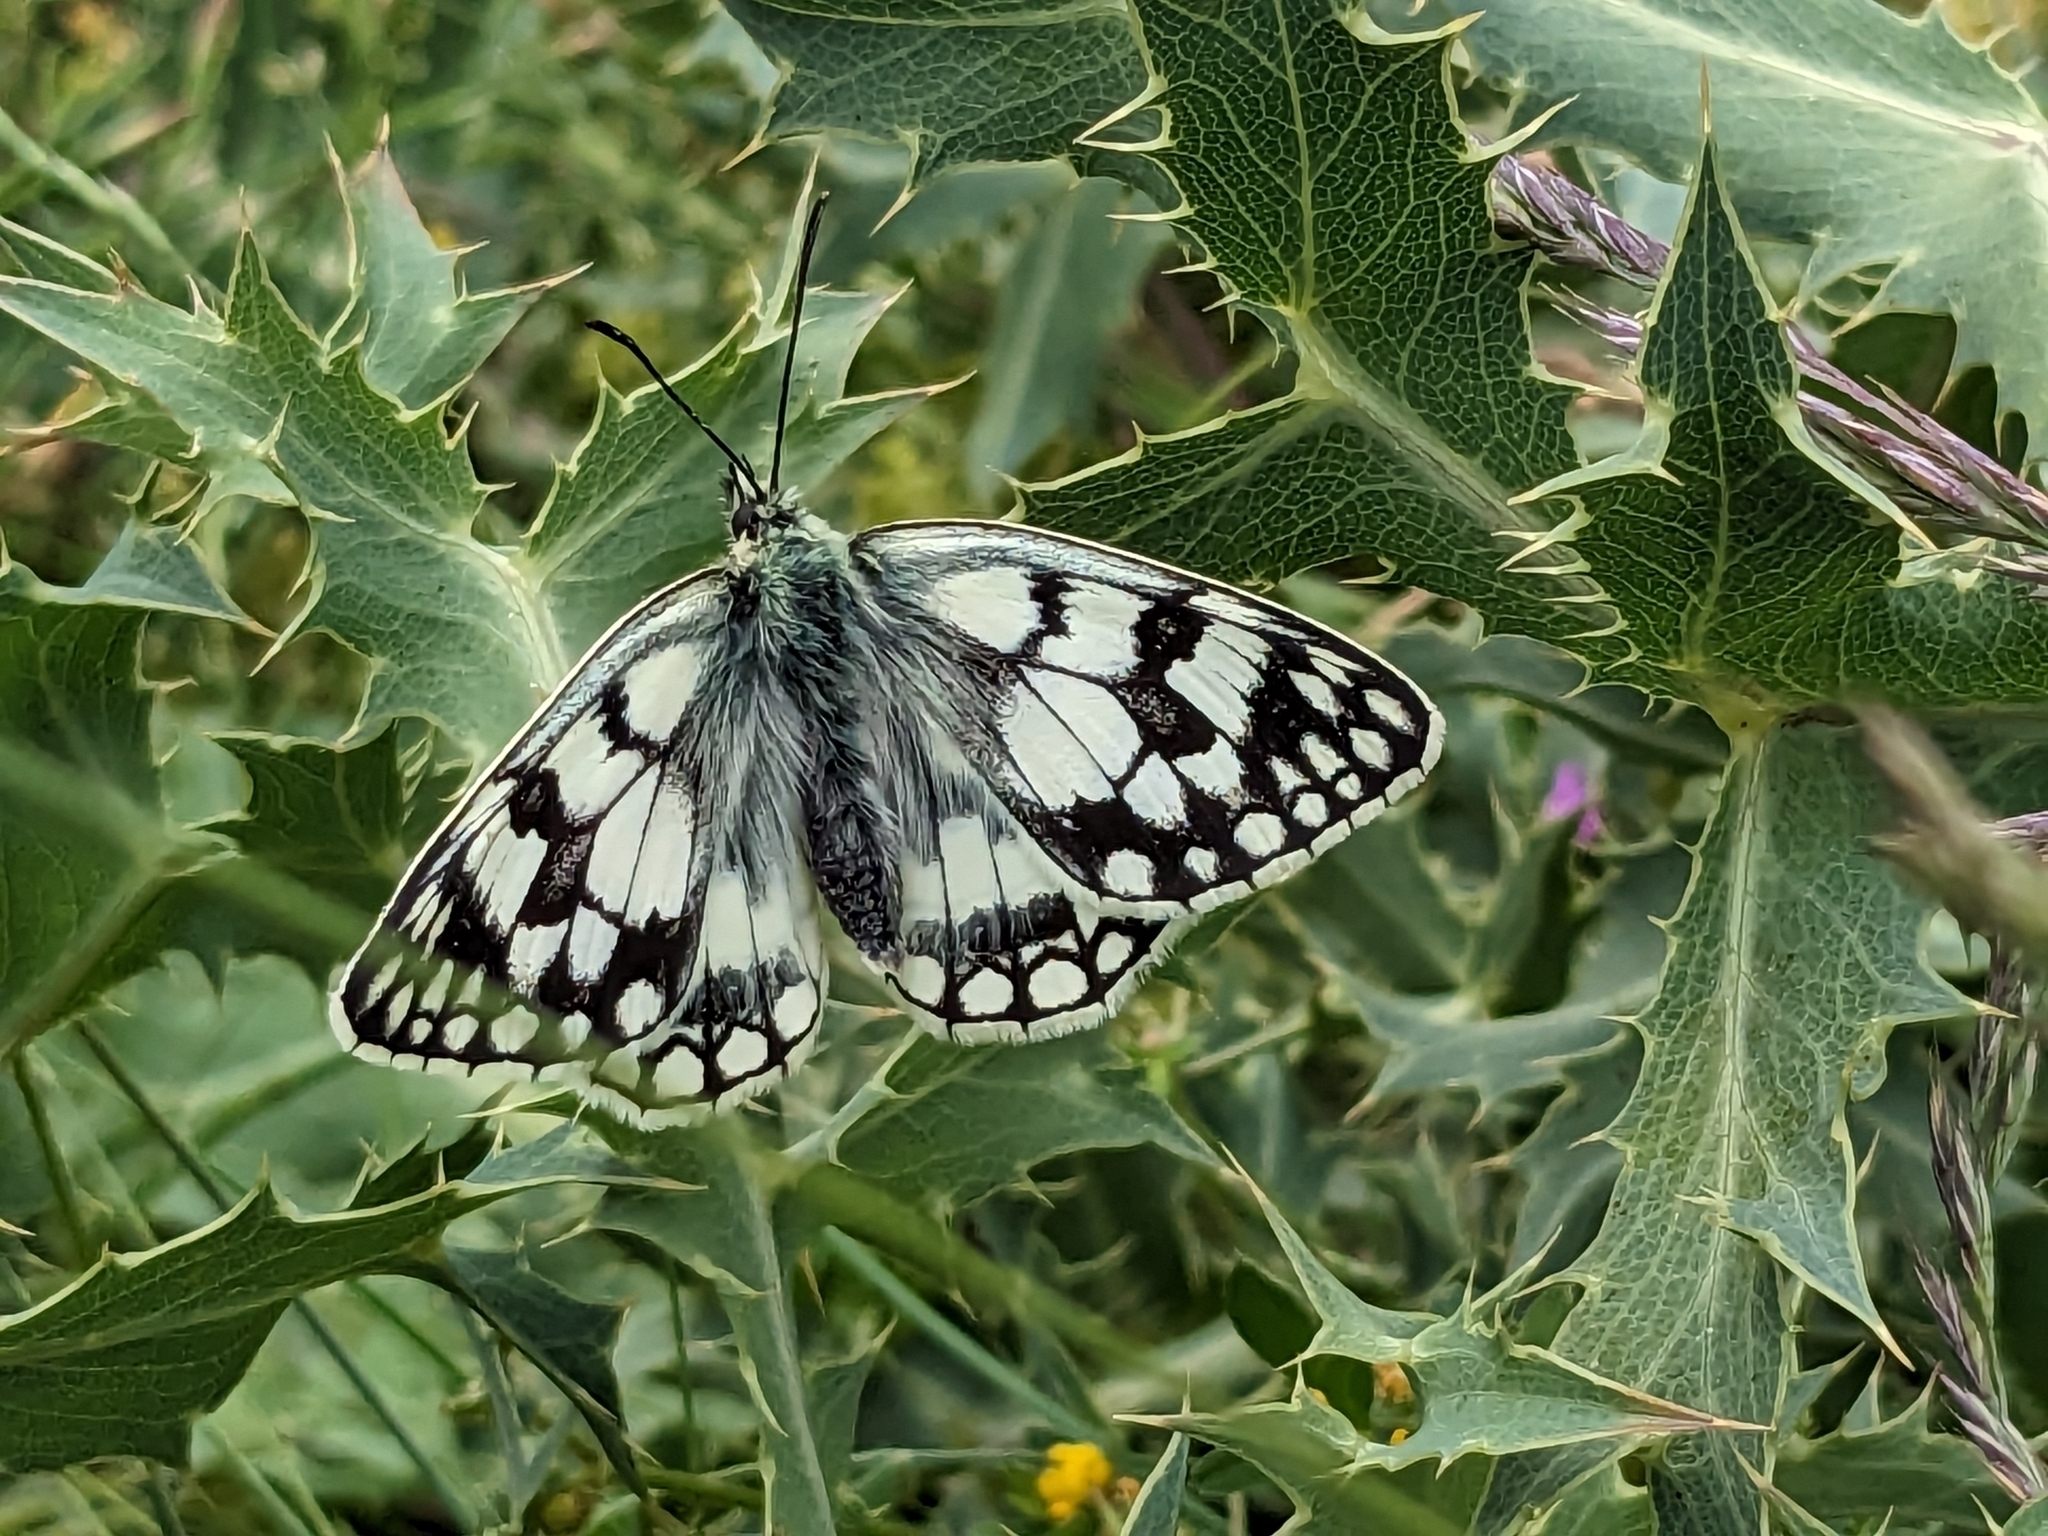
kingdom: Animalia
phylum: Arthropoda
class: Insecta
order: Lepidoptera
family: Nymphalidae
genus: Melanargia
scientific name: Melanargia japygia
